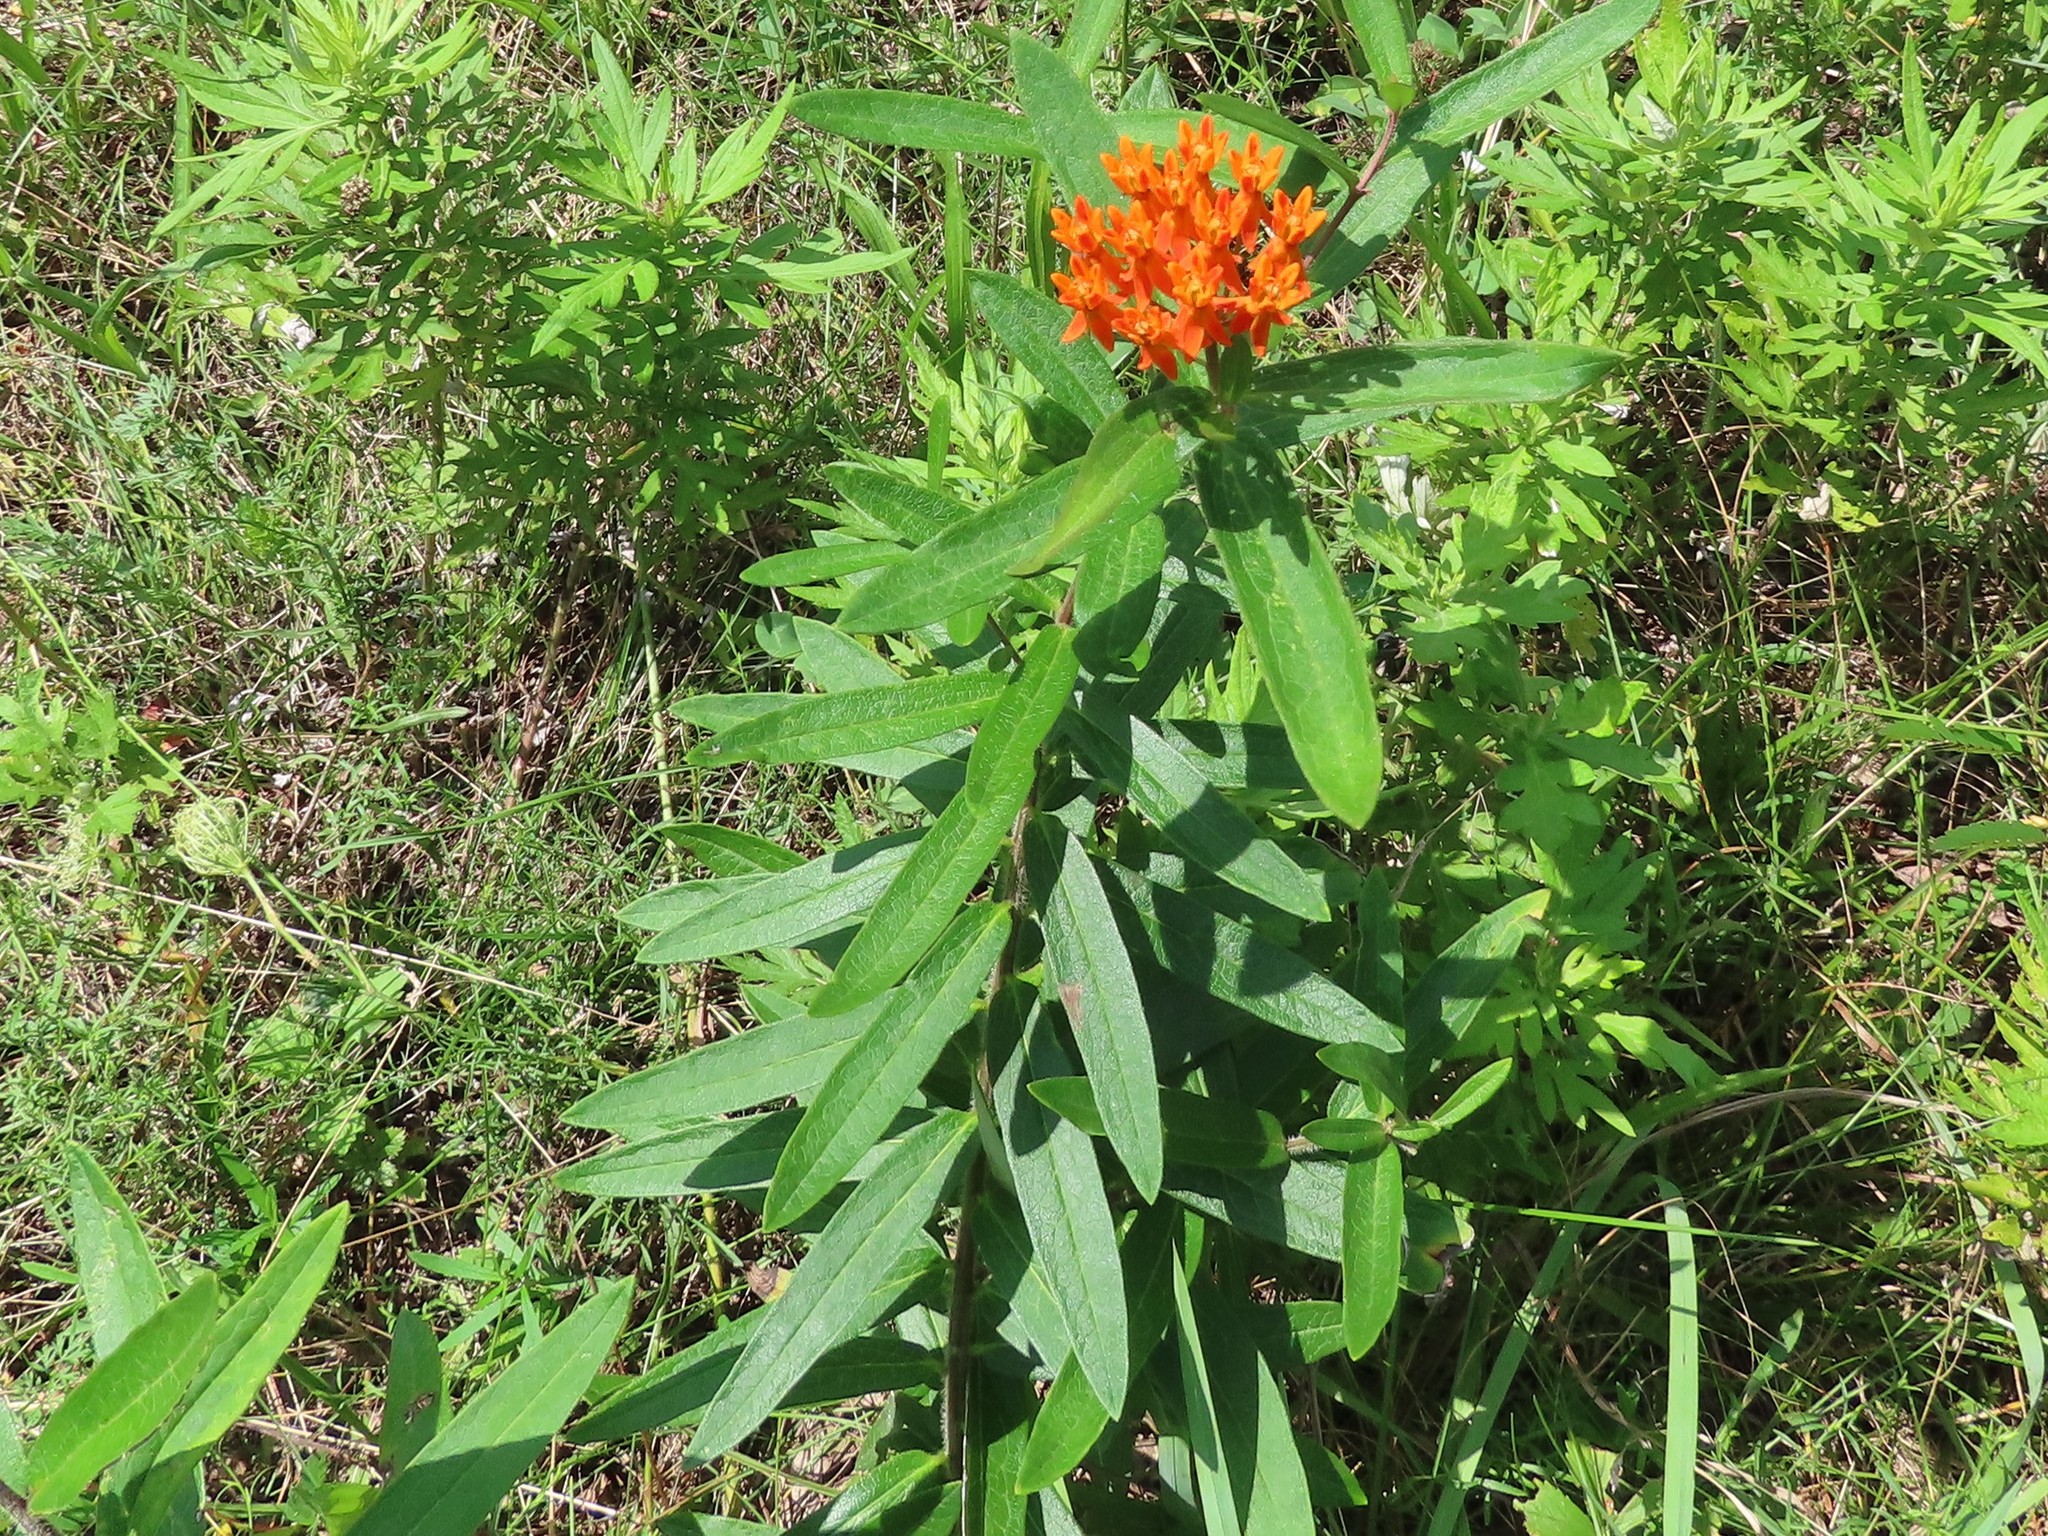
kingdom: Plantae
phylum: Tracheophyta
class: Magnoliopsida
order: Gentianales
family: Apocynaceae
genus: Asclepias
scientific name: Asclepias tuberosa
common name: Butterfly milkweed
